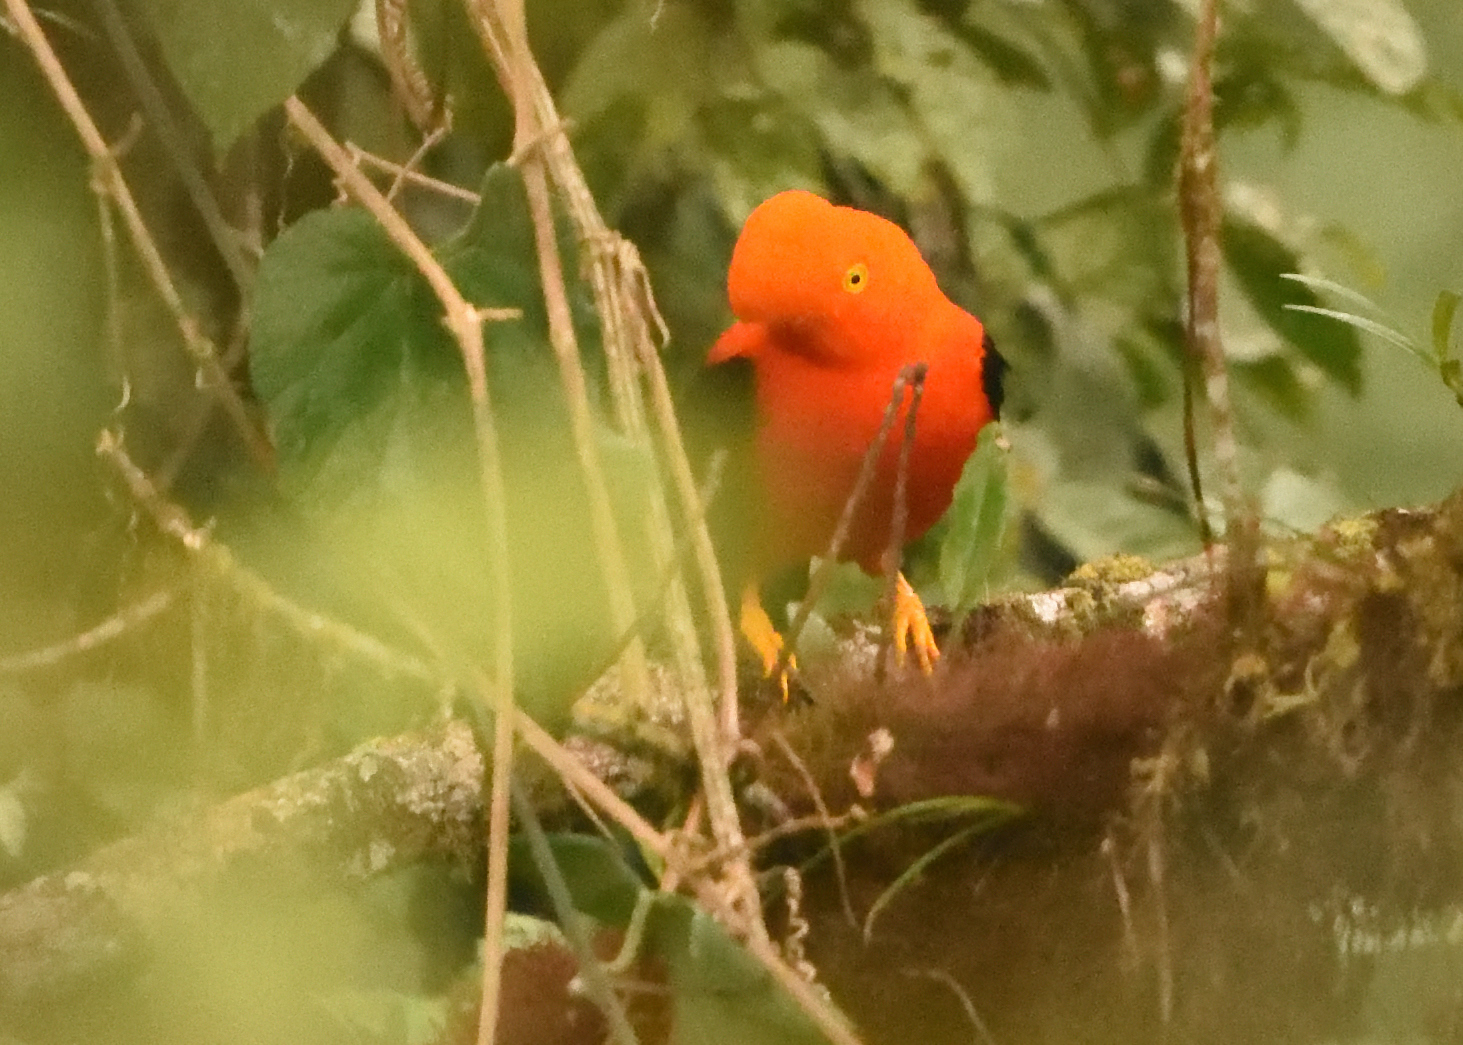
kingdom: Animalia
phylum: Chordata
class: Aves
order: Passeriformes
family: Cotingidae
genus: Rupicola
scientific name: Rupicola peruvianus
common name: Andean cock-of-the-rock
